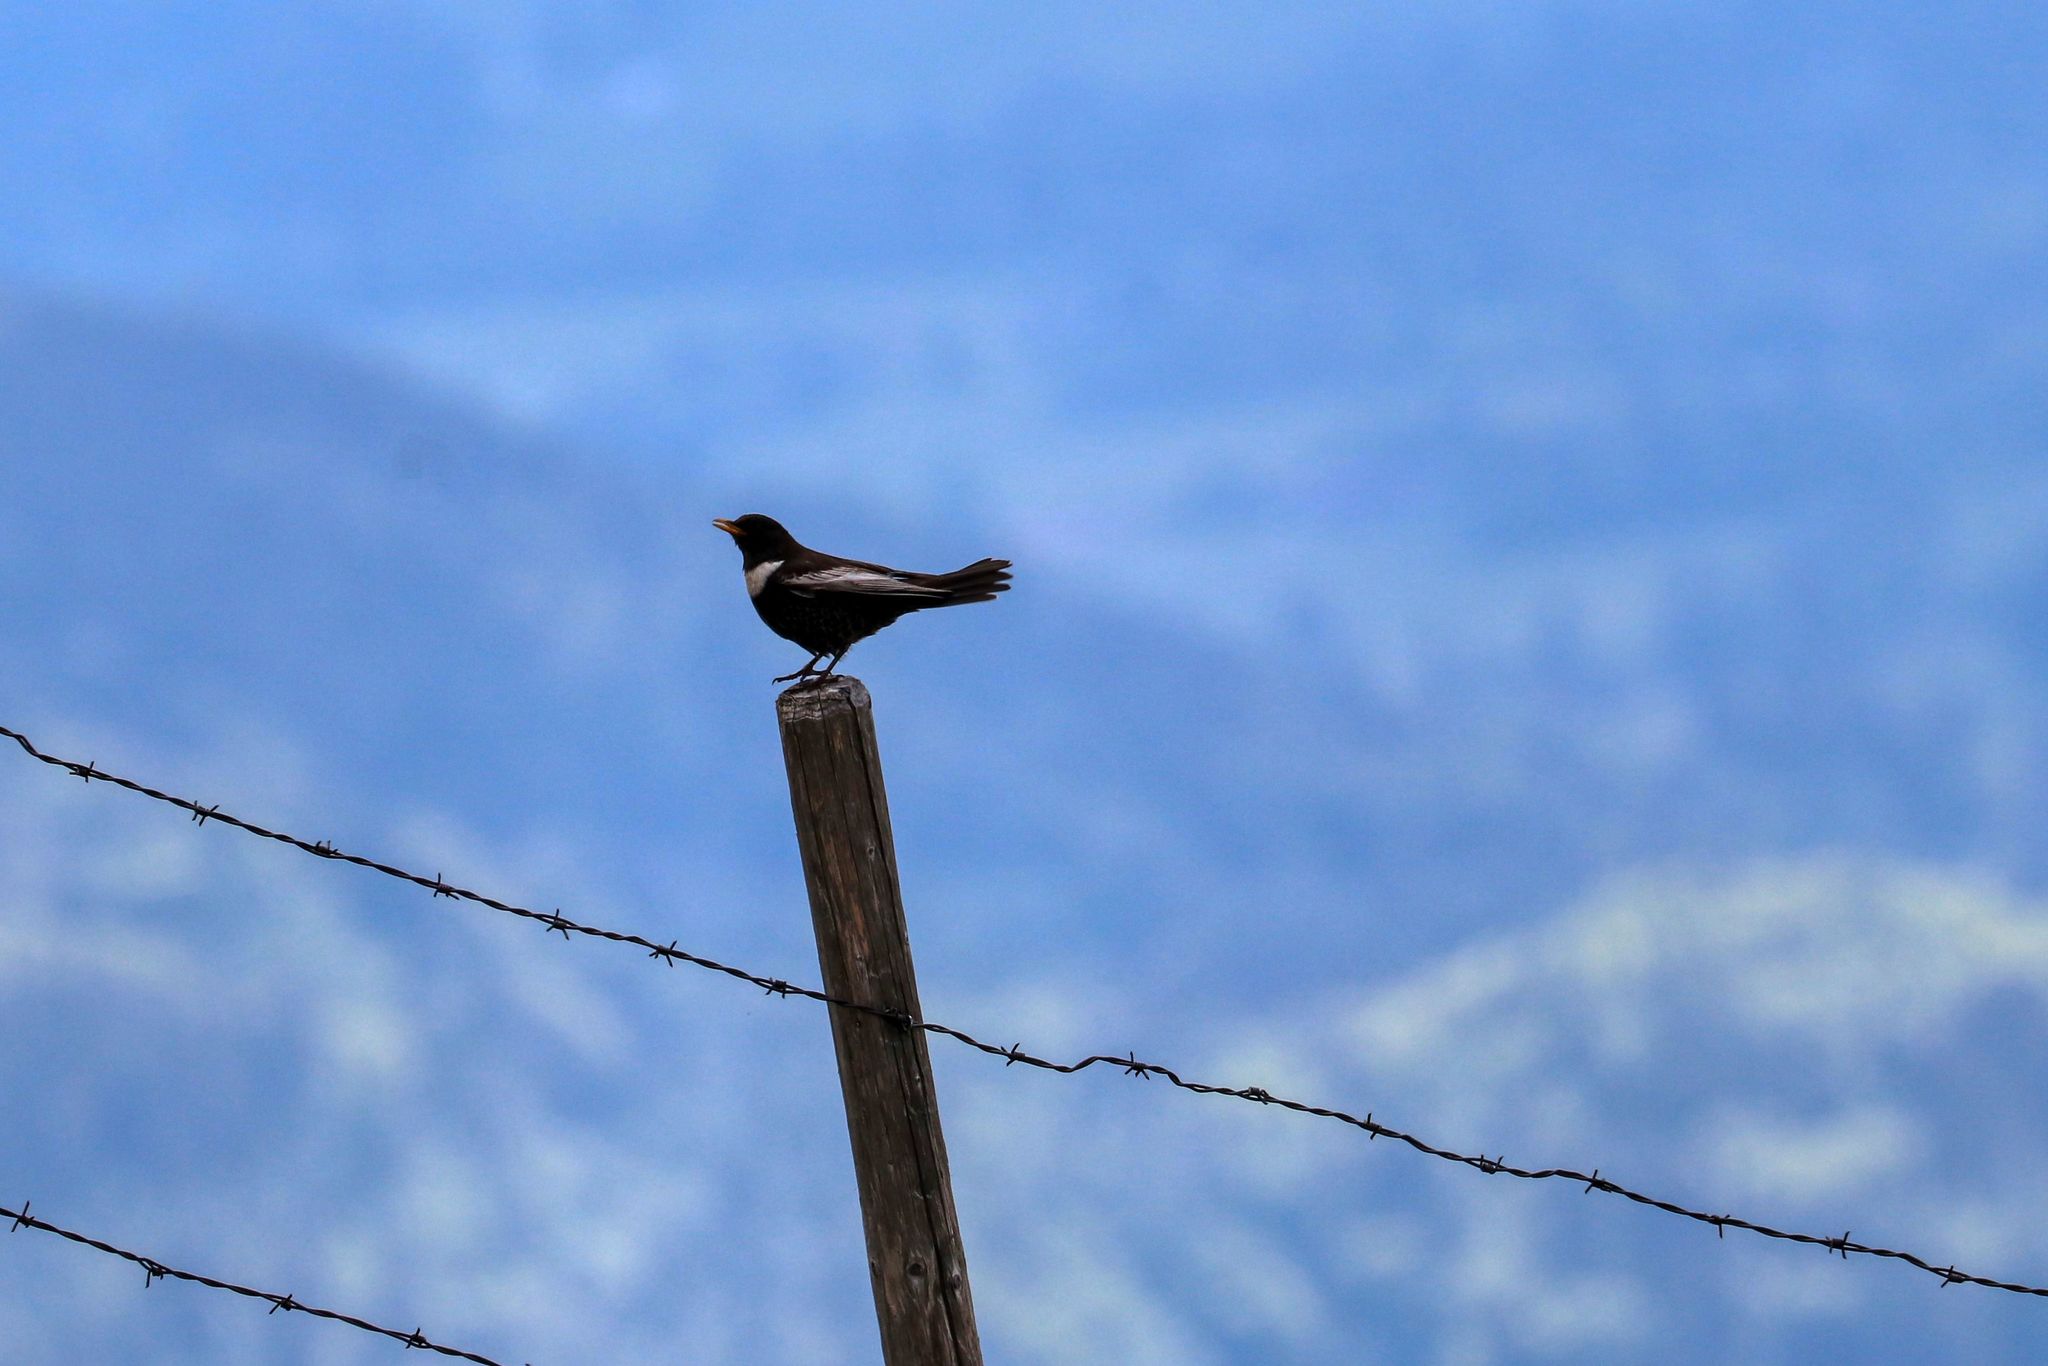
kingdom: Animalia
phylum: Chordata
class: Aves
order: Passeriformes
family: Turdidae
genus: Turdus
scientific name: Turdus torquatus
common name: Ring ouzel
